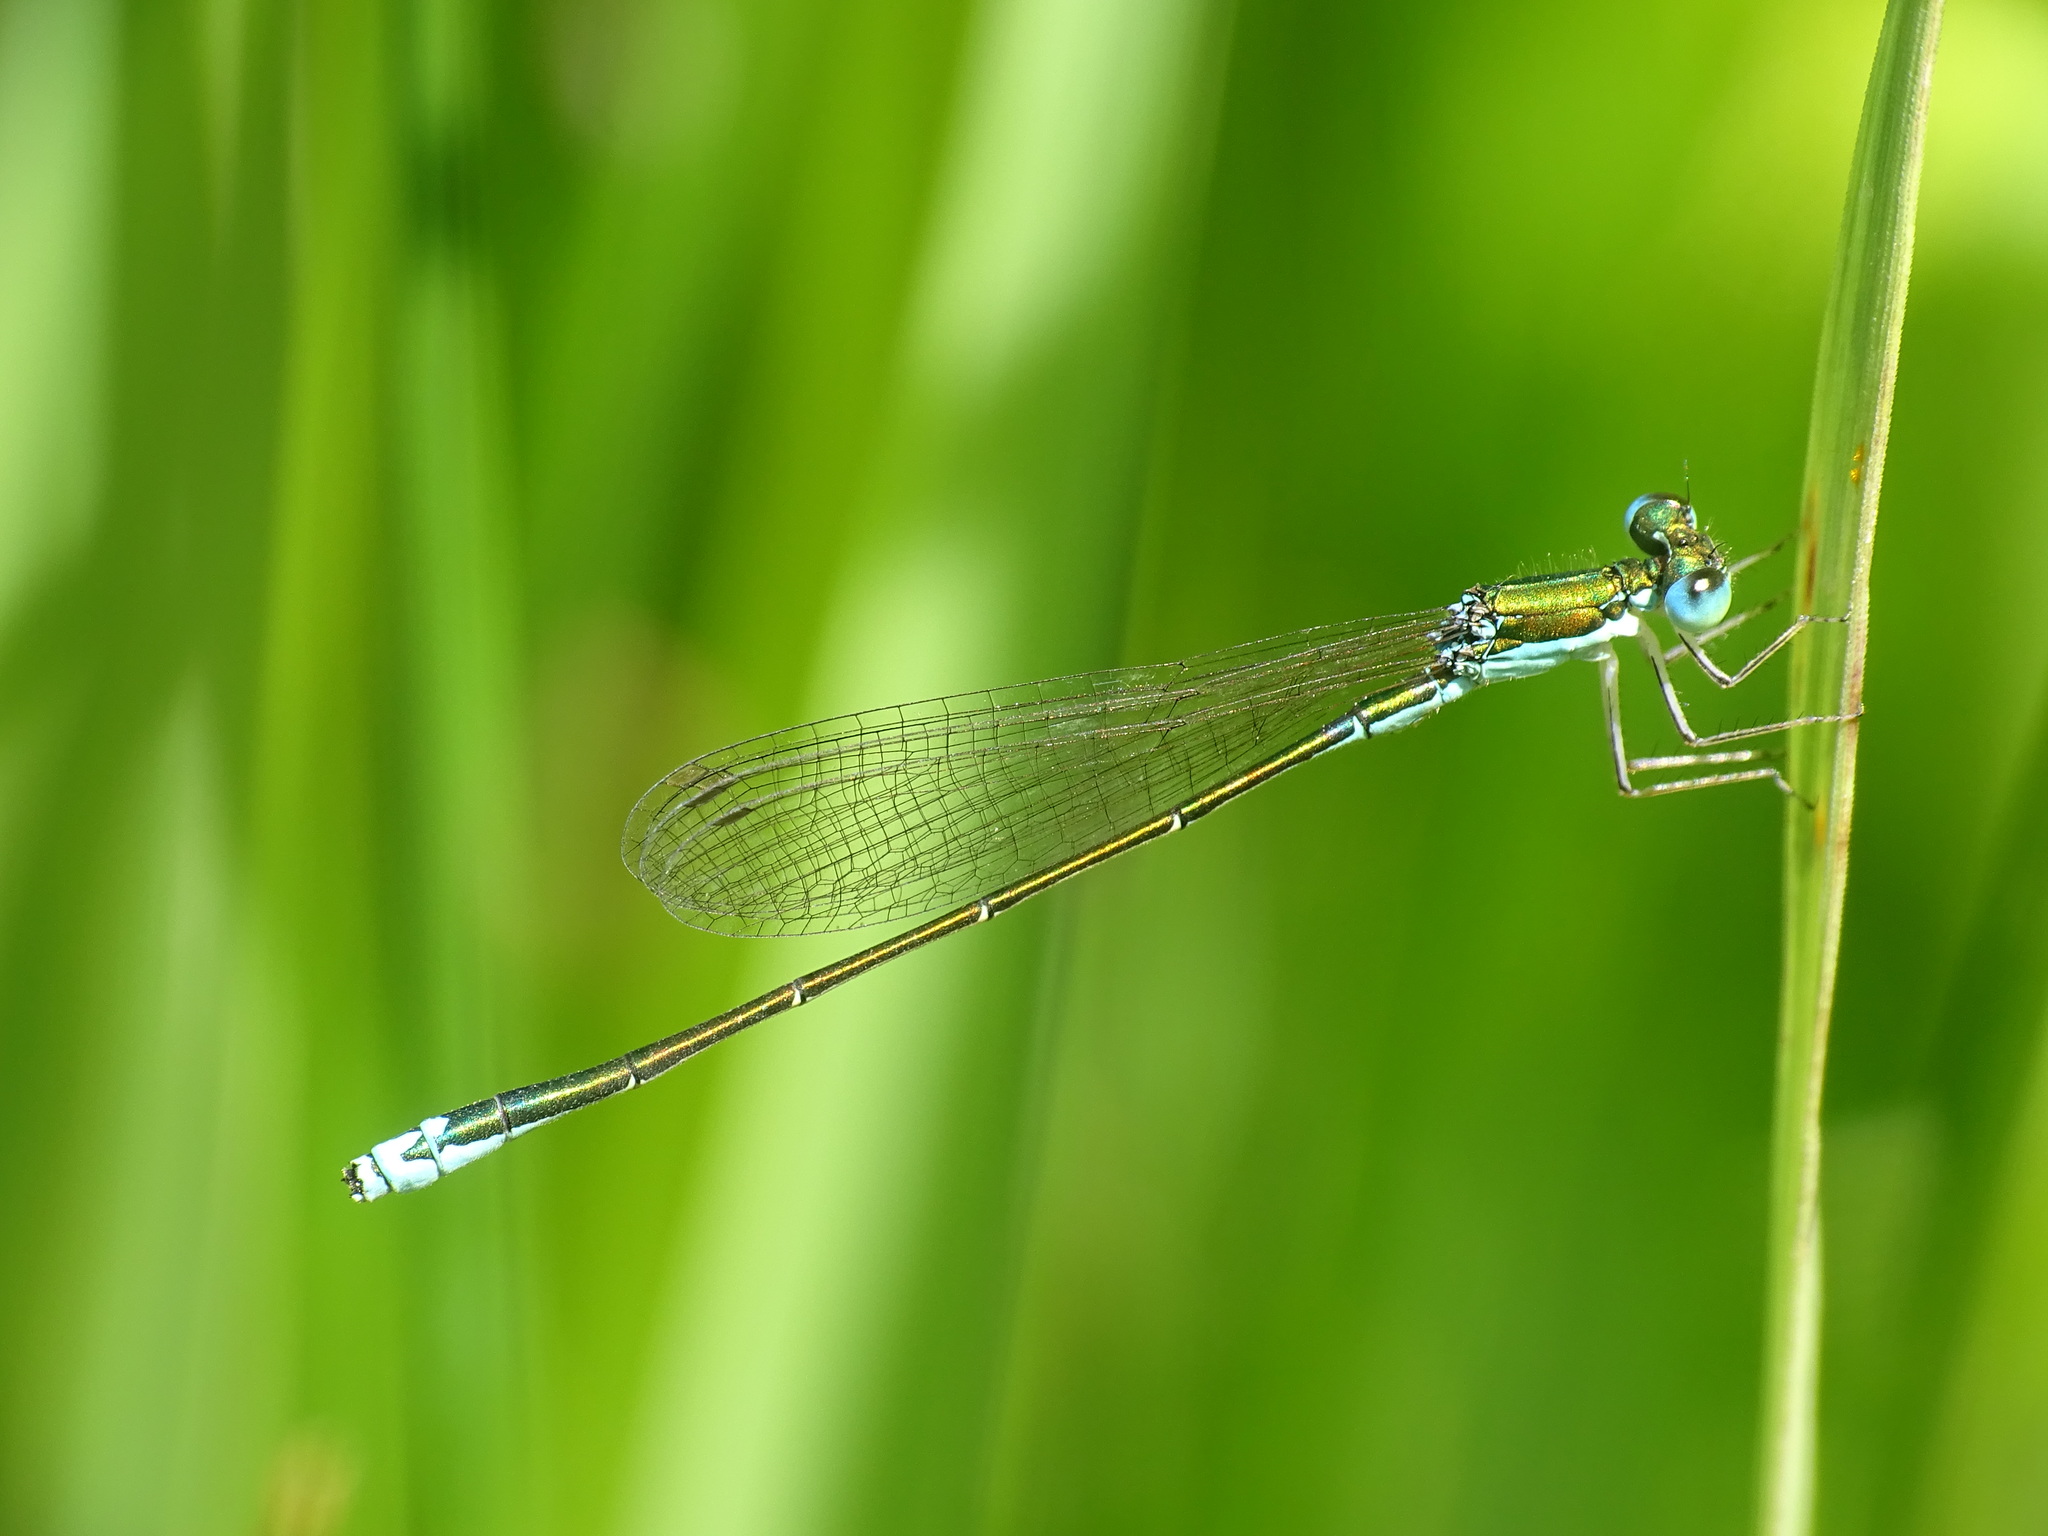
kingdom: Animalia
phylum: Arthropoda
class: Insecta
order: Odonata
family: Coenagrionidae
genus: Nehalennia
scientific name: Nehalennia irene
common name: Sedge sprite
